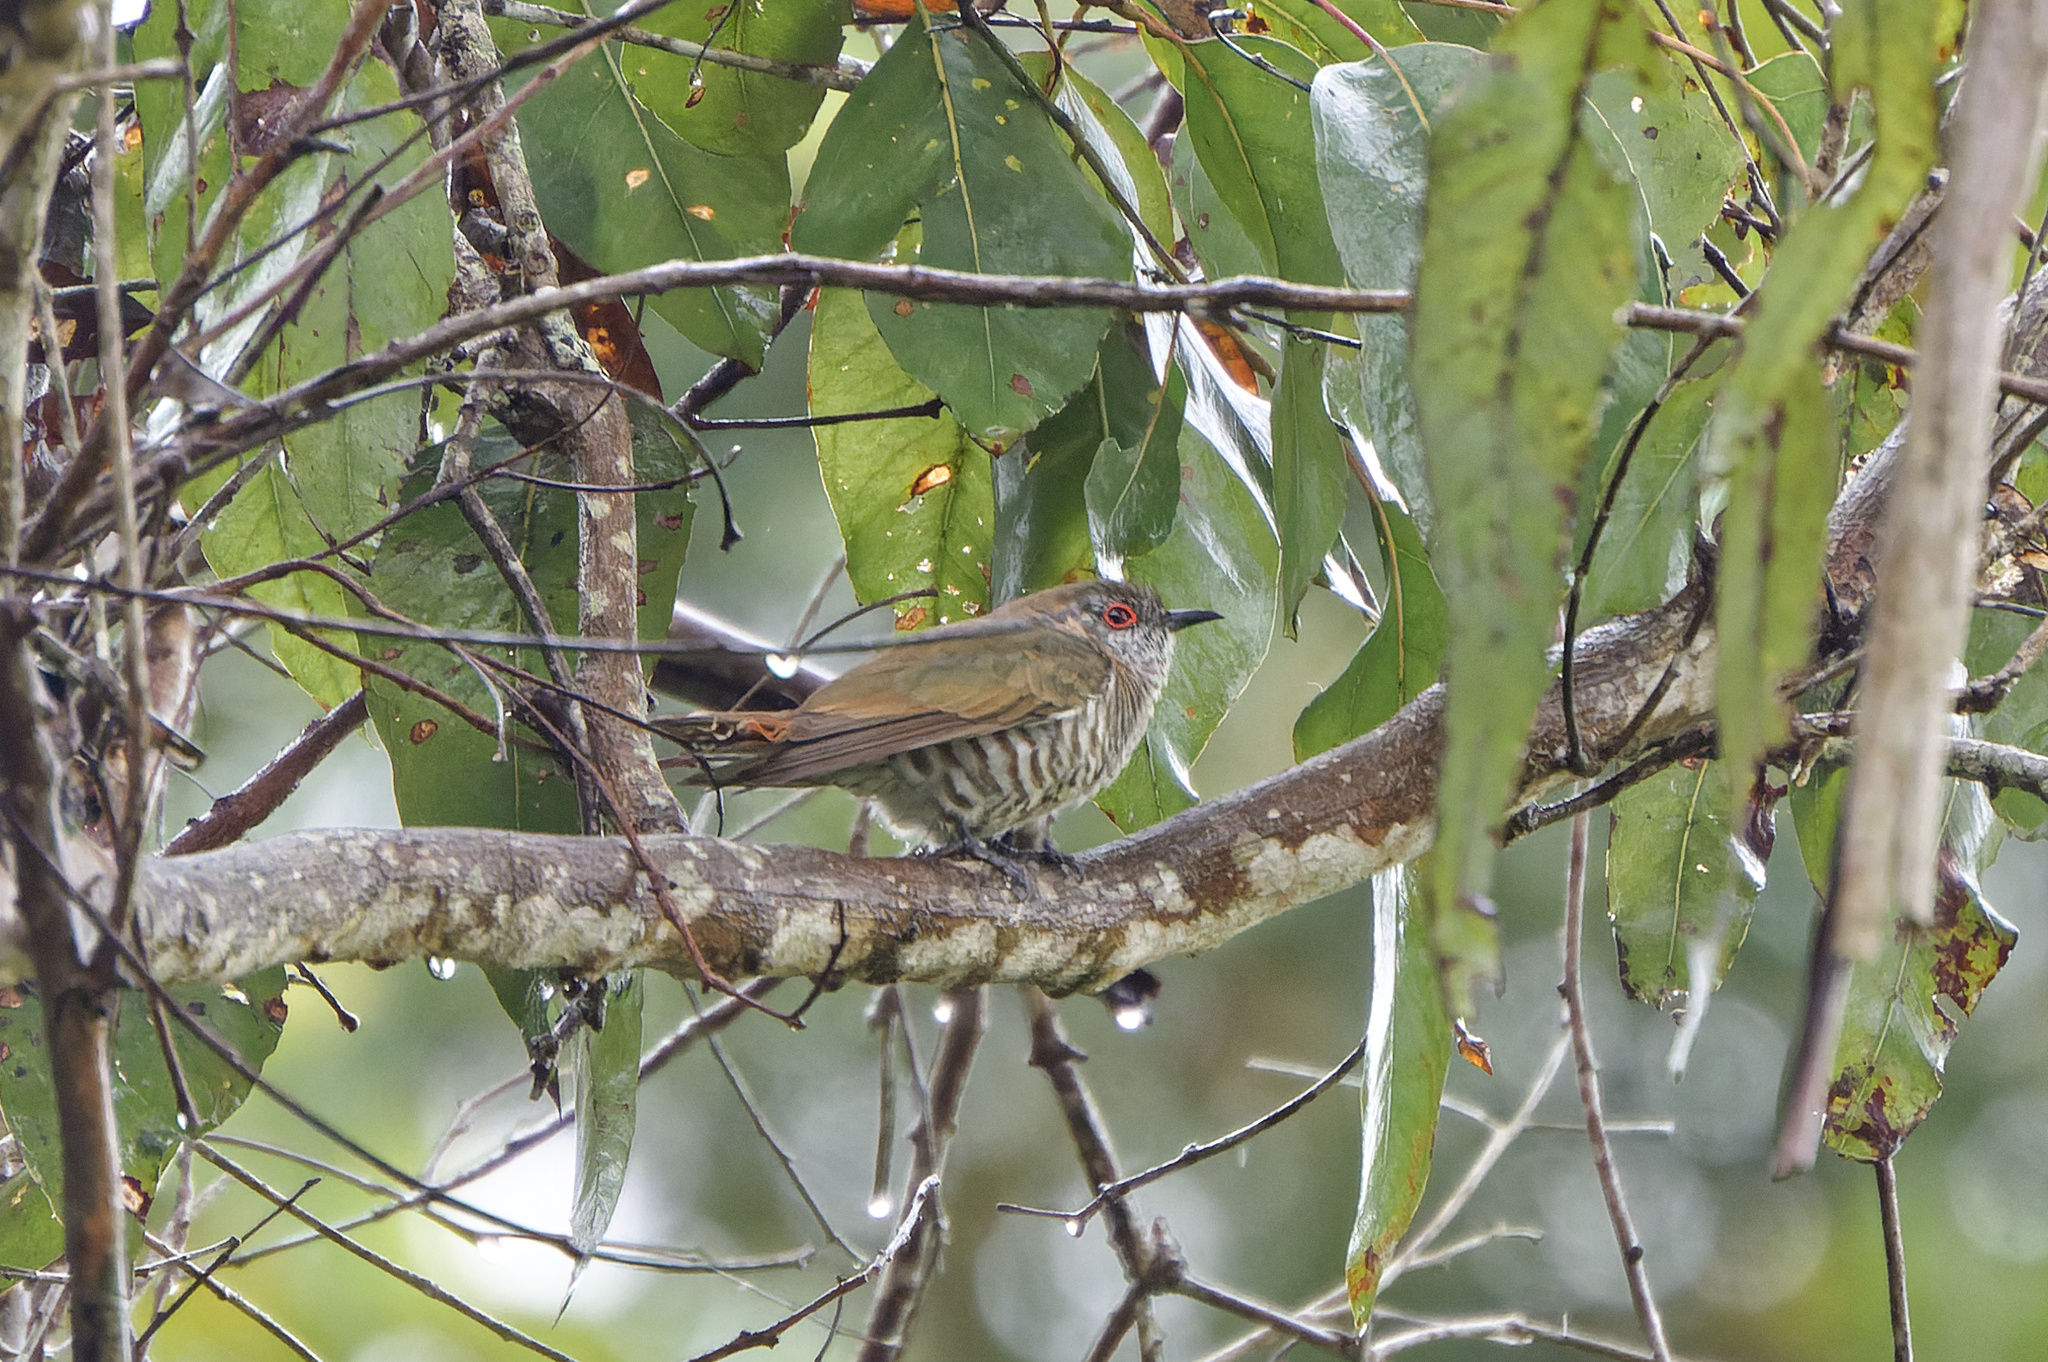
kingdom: Animalia
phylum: Chordata
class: Aves
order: Cuculiformes
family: Cuculidae
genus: Chrysococcyx
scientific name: Chrysococcyx minutillus
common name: Little bronze cuckoo
